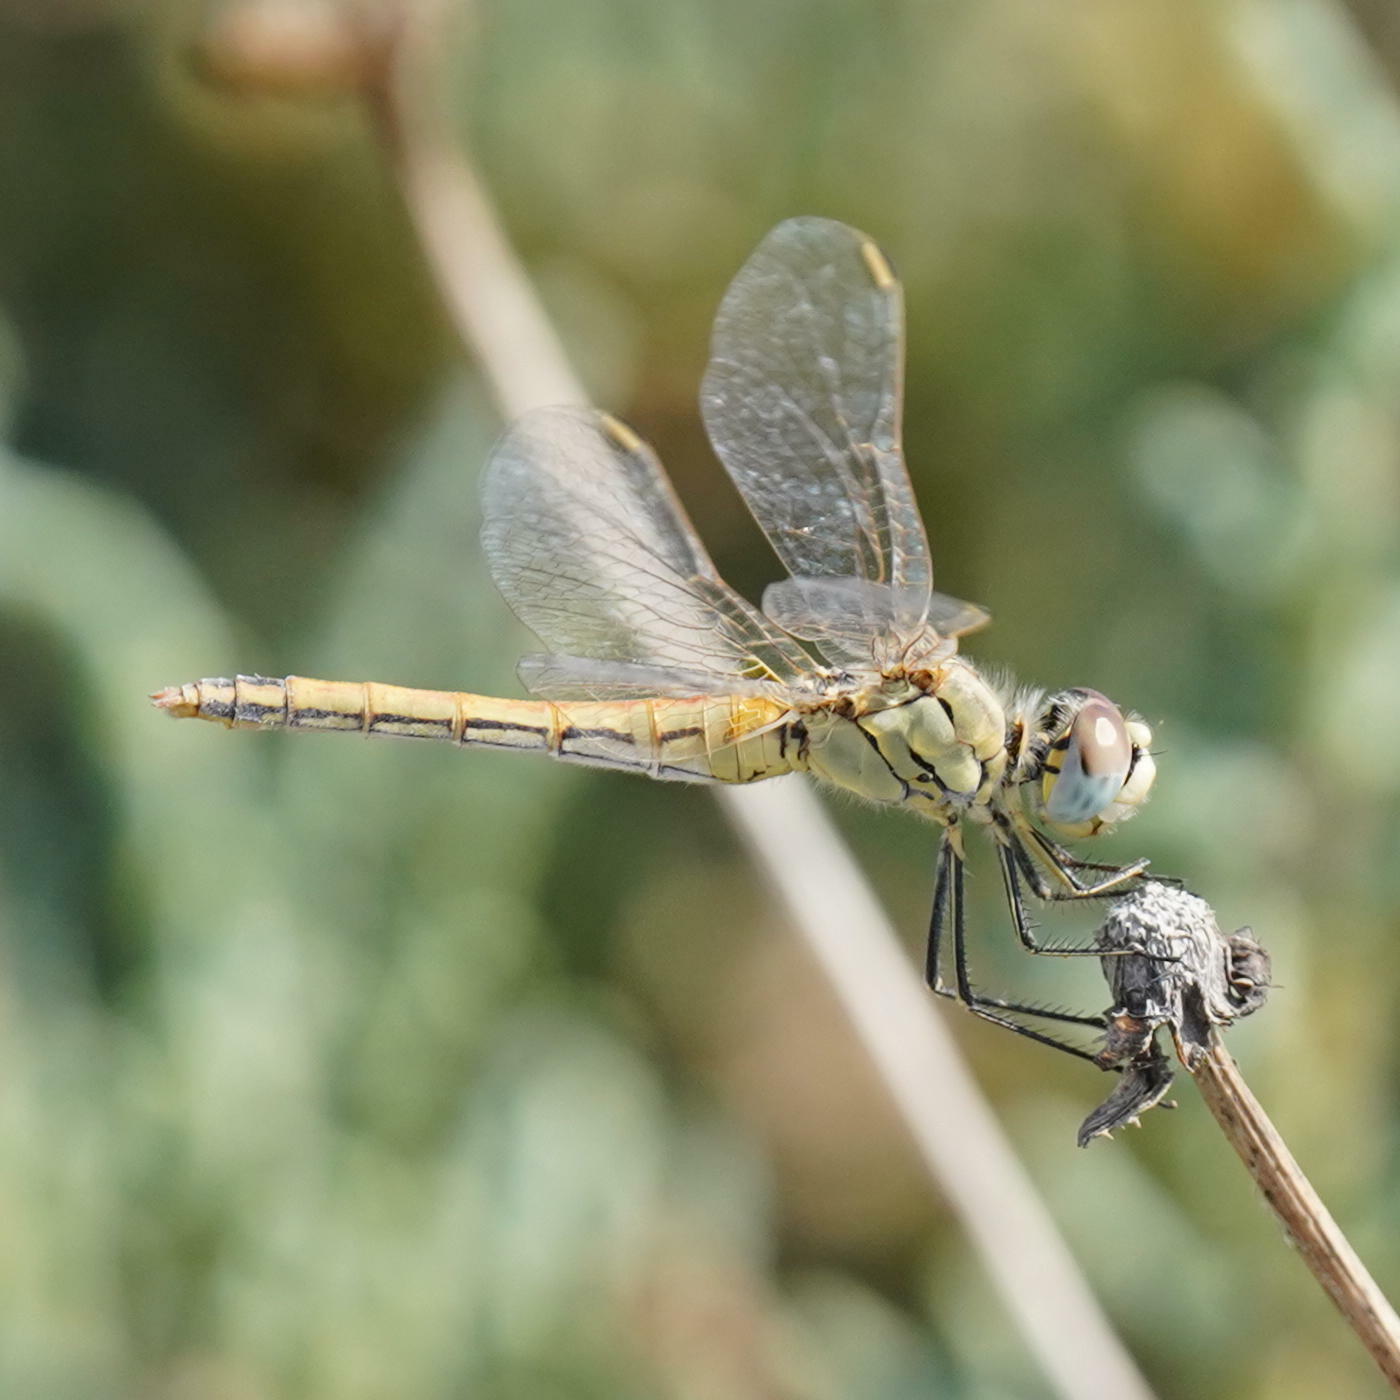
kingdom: Animalia
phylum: Arthropoda
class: Insecta
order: Odonata
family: Libellulidae
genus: Sympetrum
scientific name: Sympetrum fonscolombii
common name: Red-veined darter
